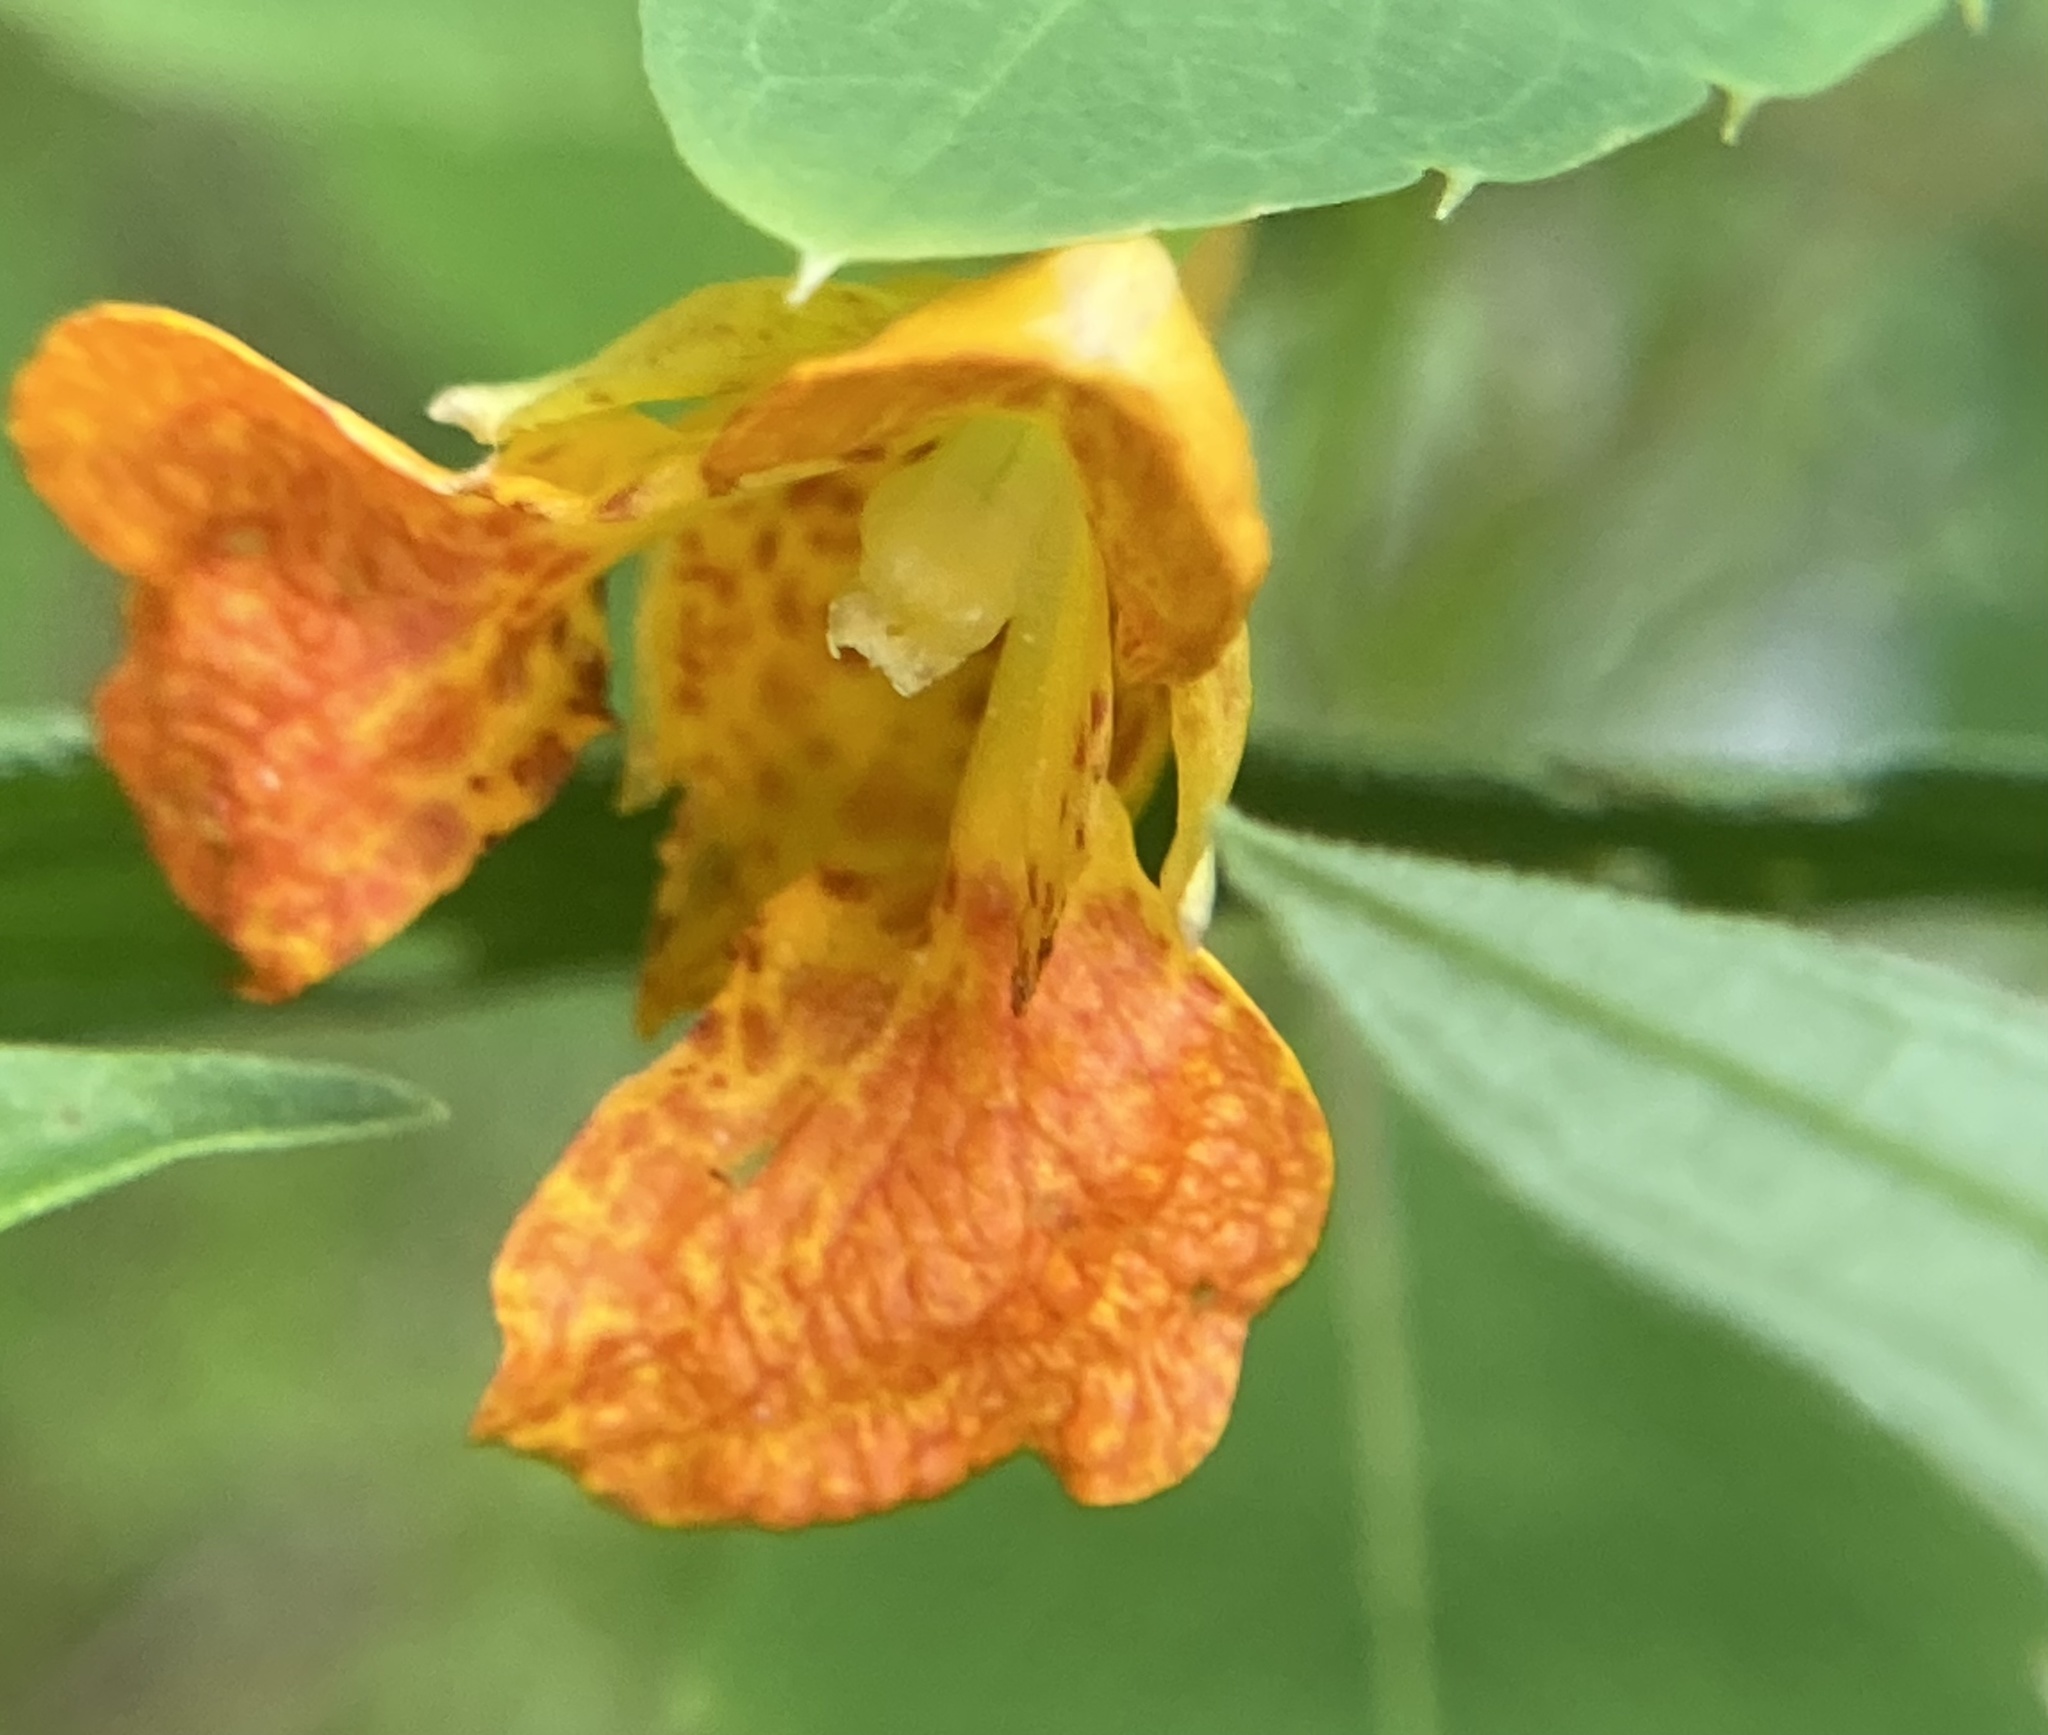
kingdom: Plantae
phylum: Tracheophyta
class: Magnoliopsida
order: Ericales
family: Balsaminaceae
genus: Impatiens
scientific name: Impatiens capensis
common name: Orange balsam
